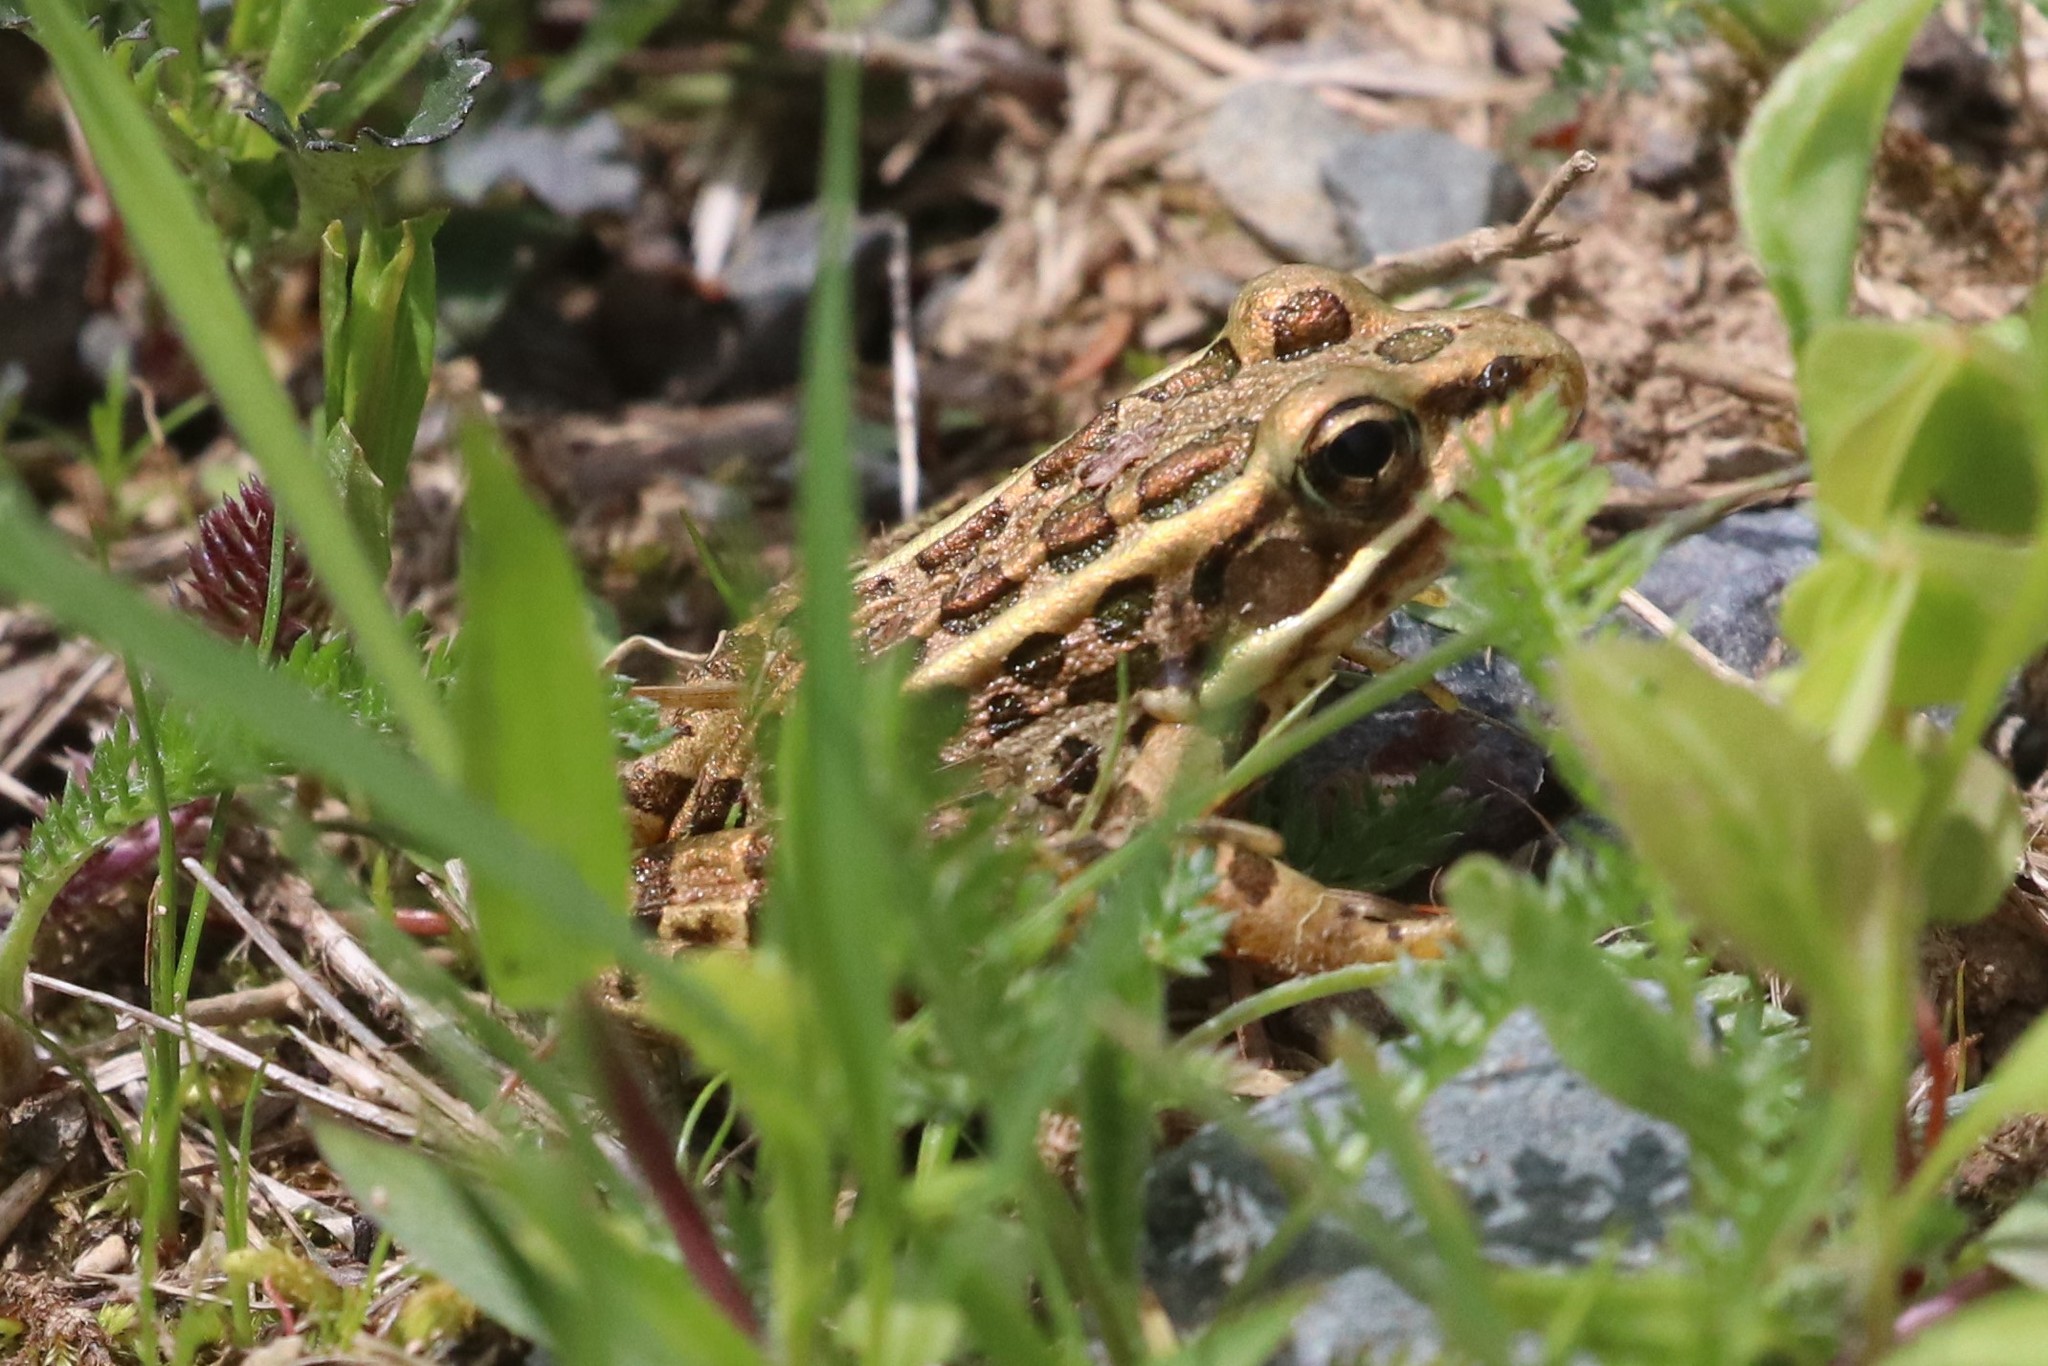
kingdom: Animalia
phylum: Chordata
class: Amphibia
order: Anura
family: Ranidae
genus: Lithobates
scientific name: Lithobates palustris
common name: Pickerel frog
